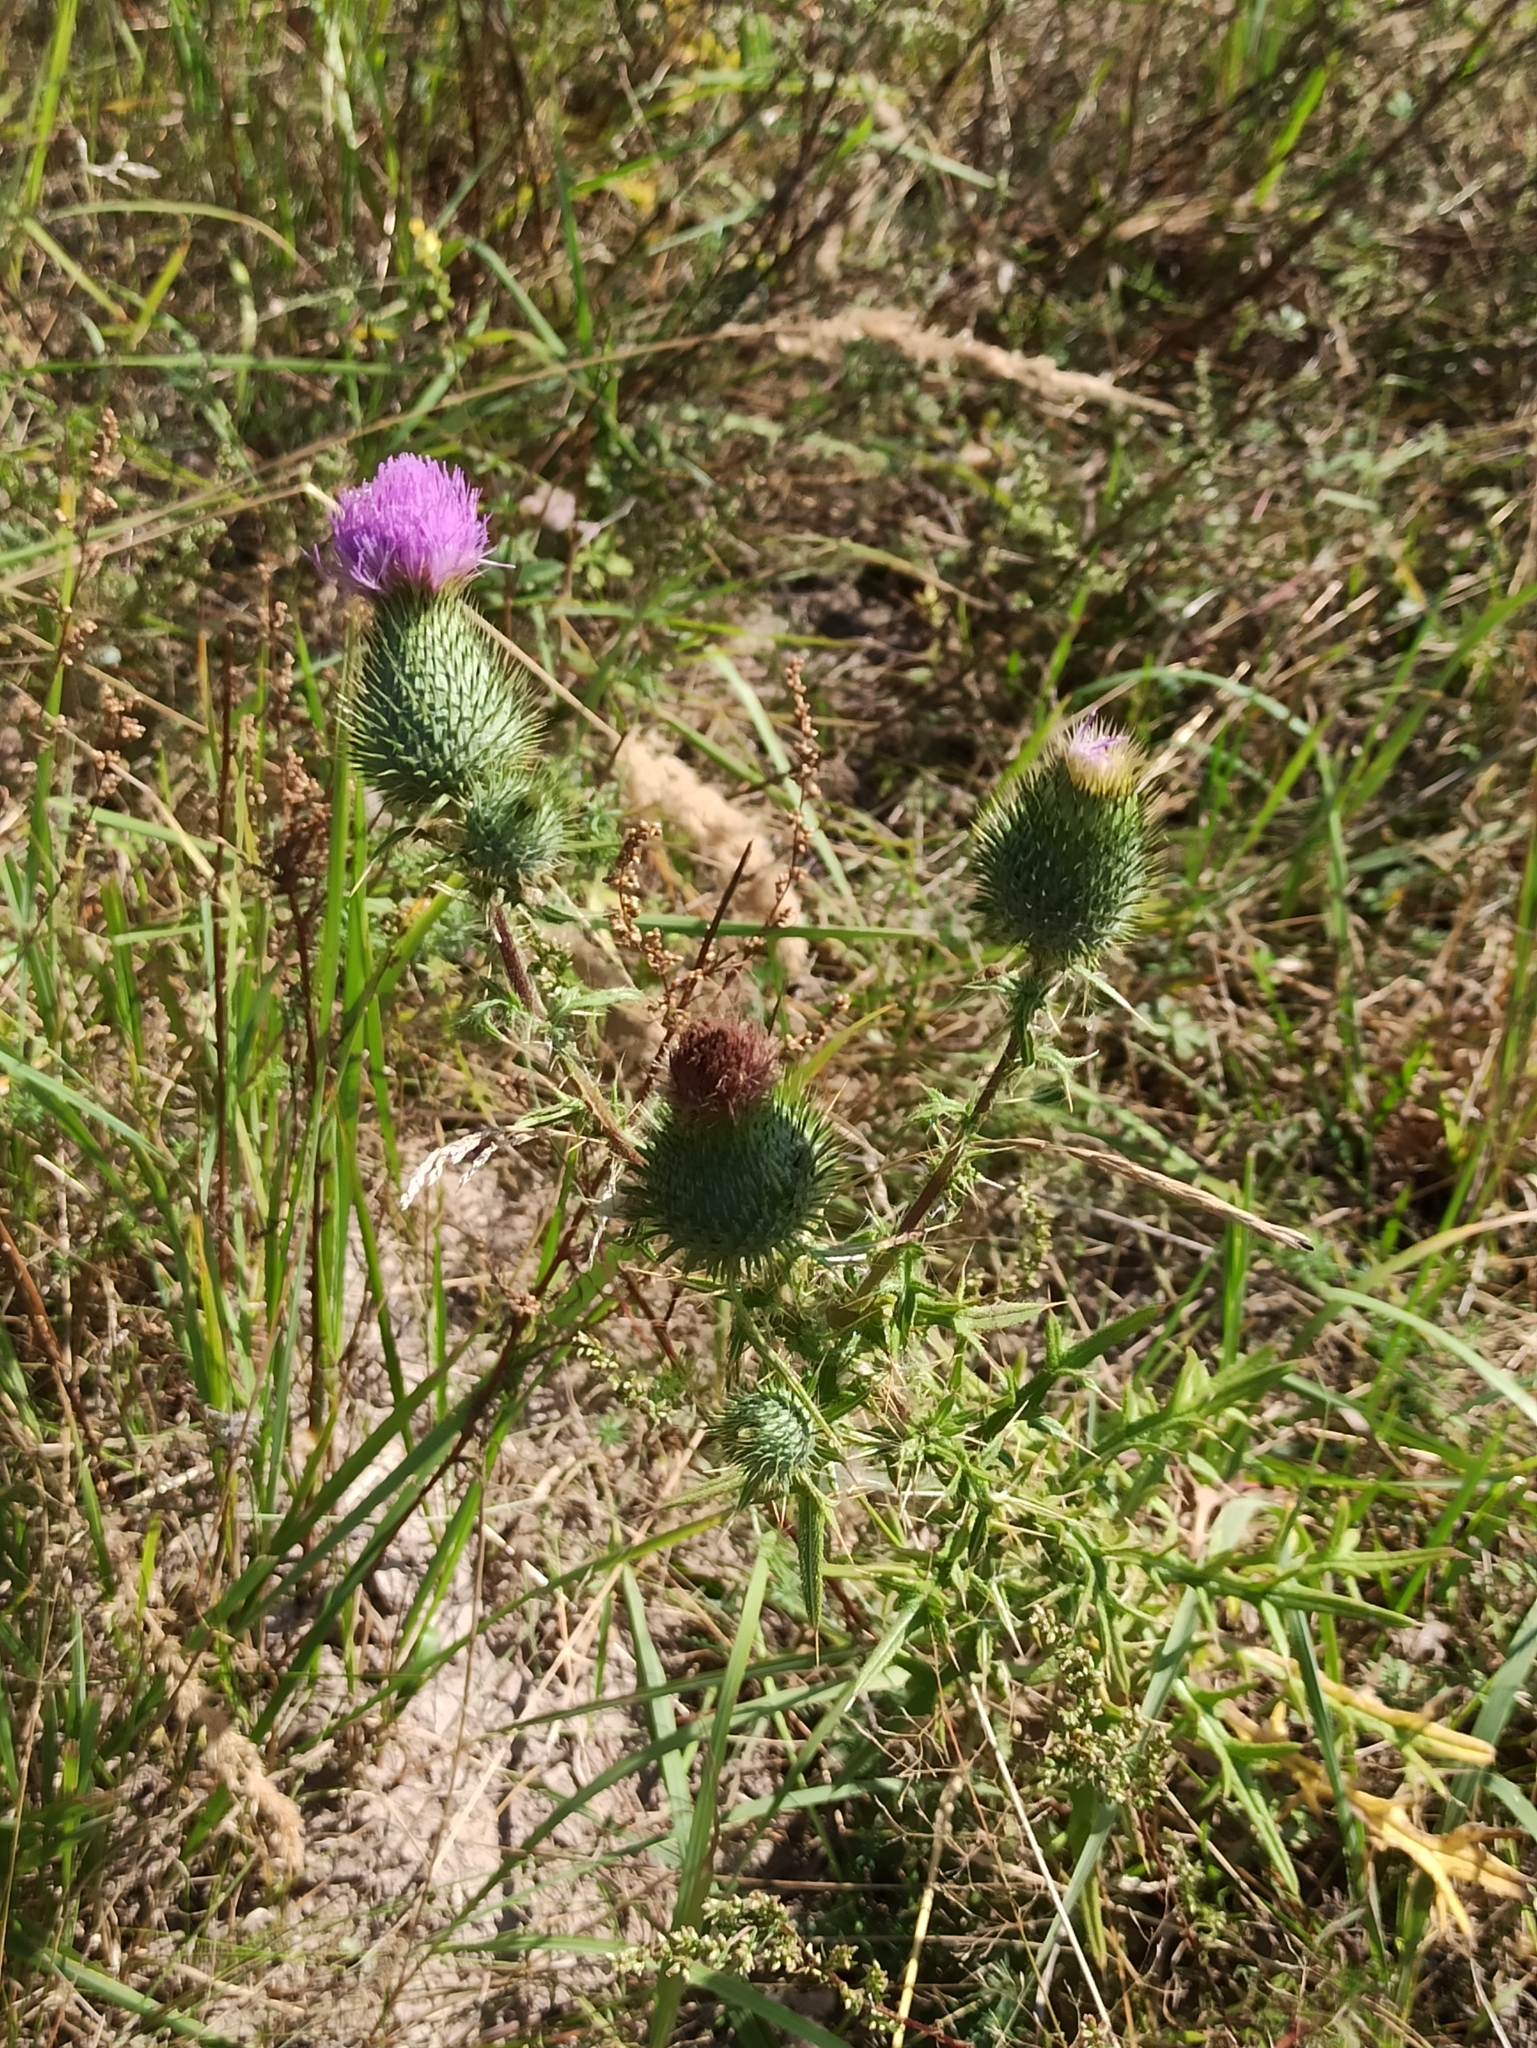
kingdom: Plantae
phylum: Tracheophyta
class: Magnoliopsida
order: Asterales
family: Asteraceae
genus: Cirsium
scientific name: Cirsium vulgare
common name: Bull thistle
